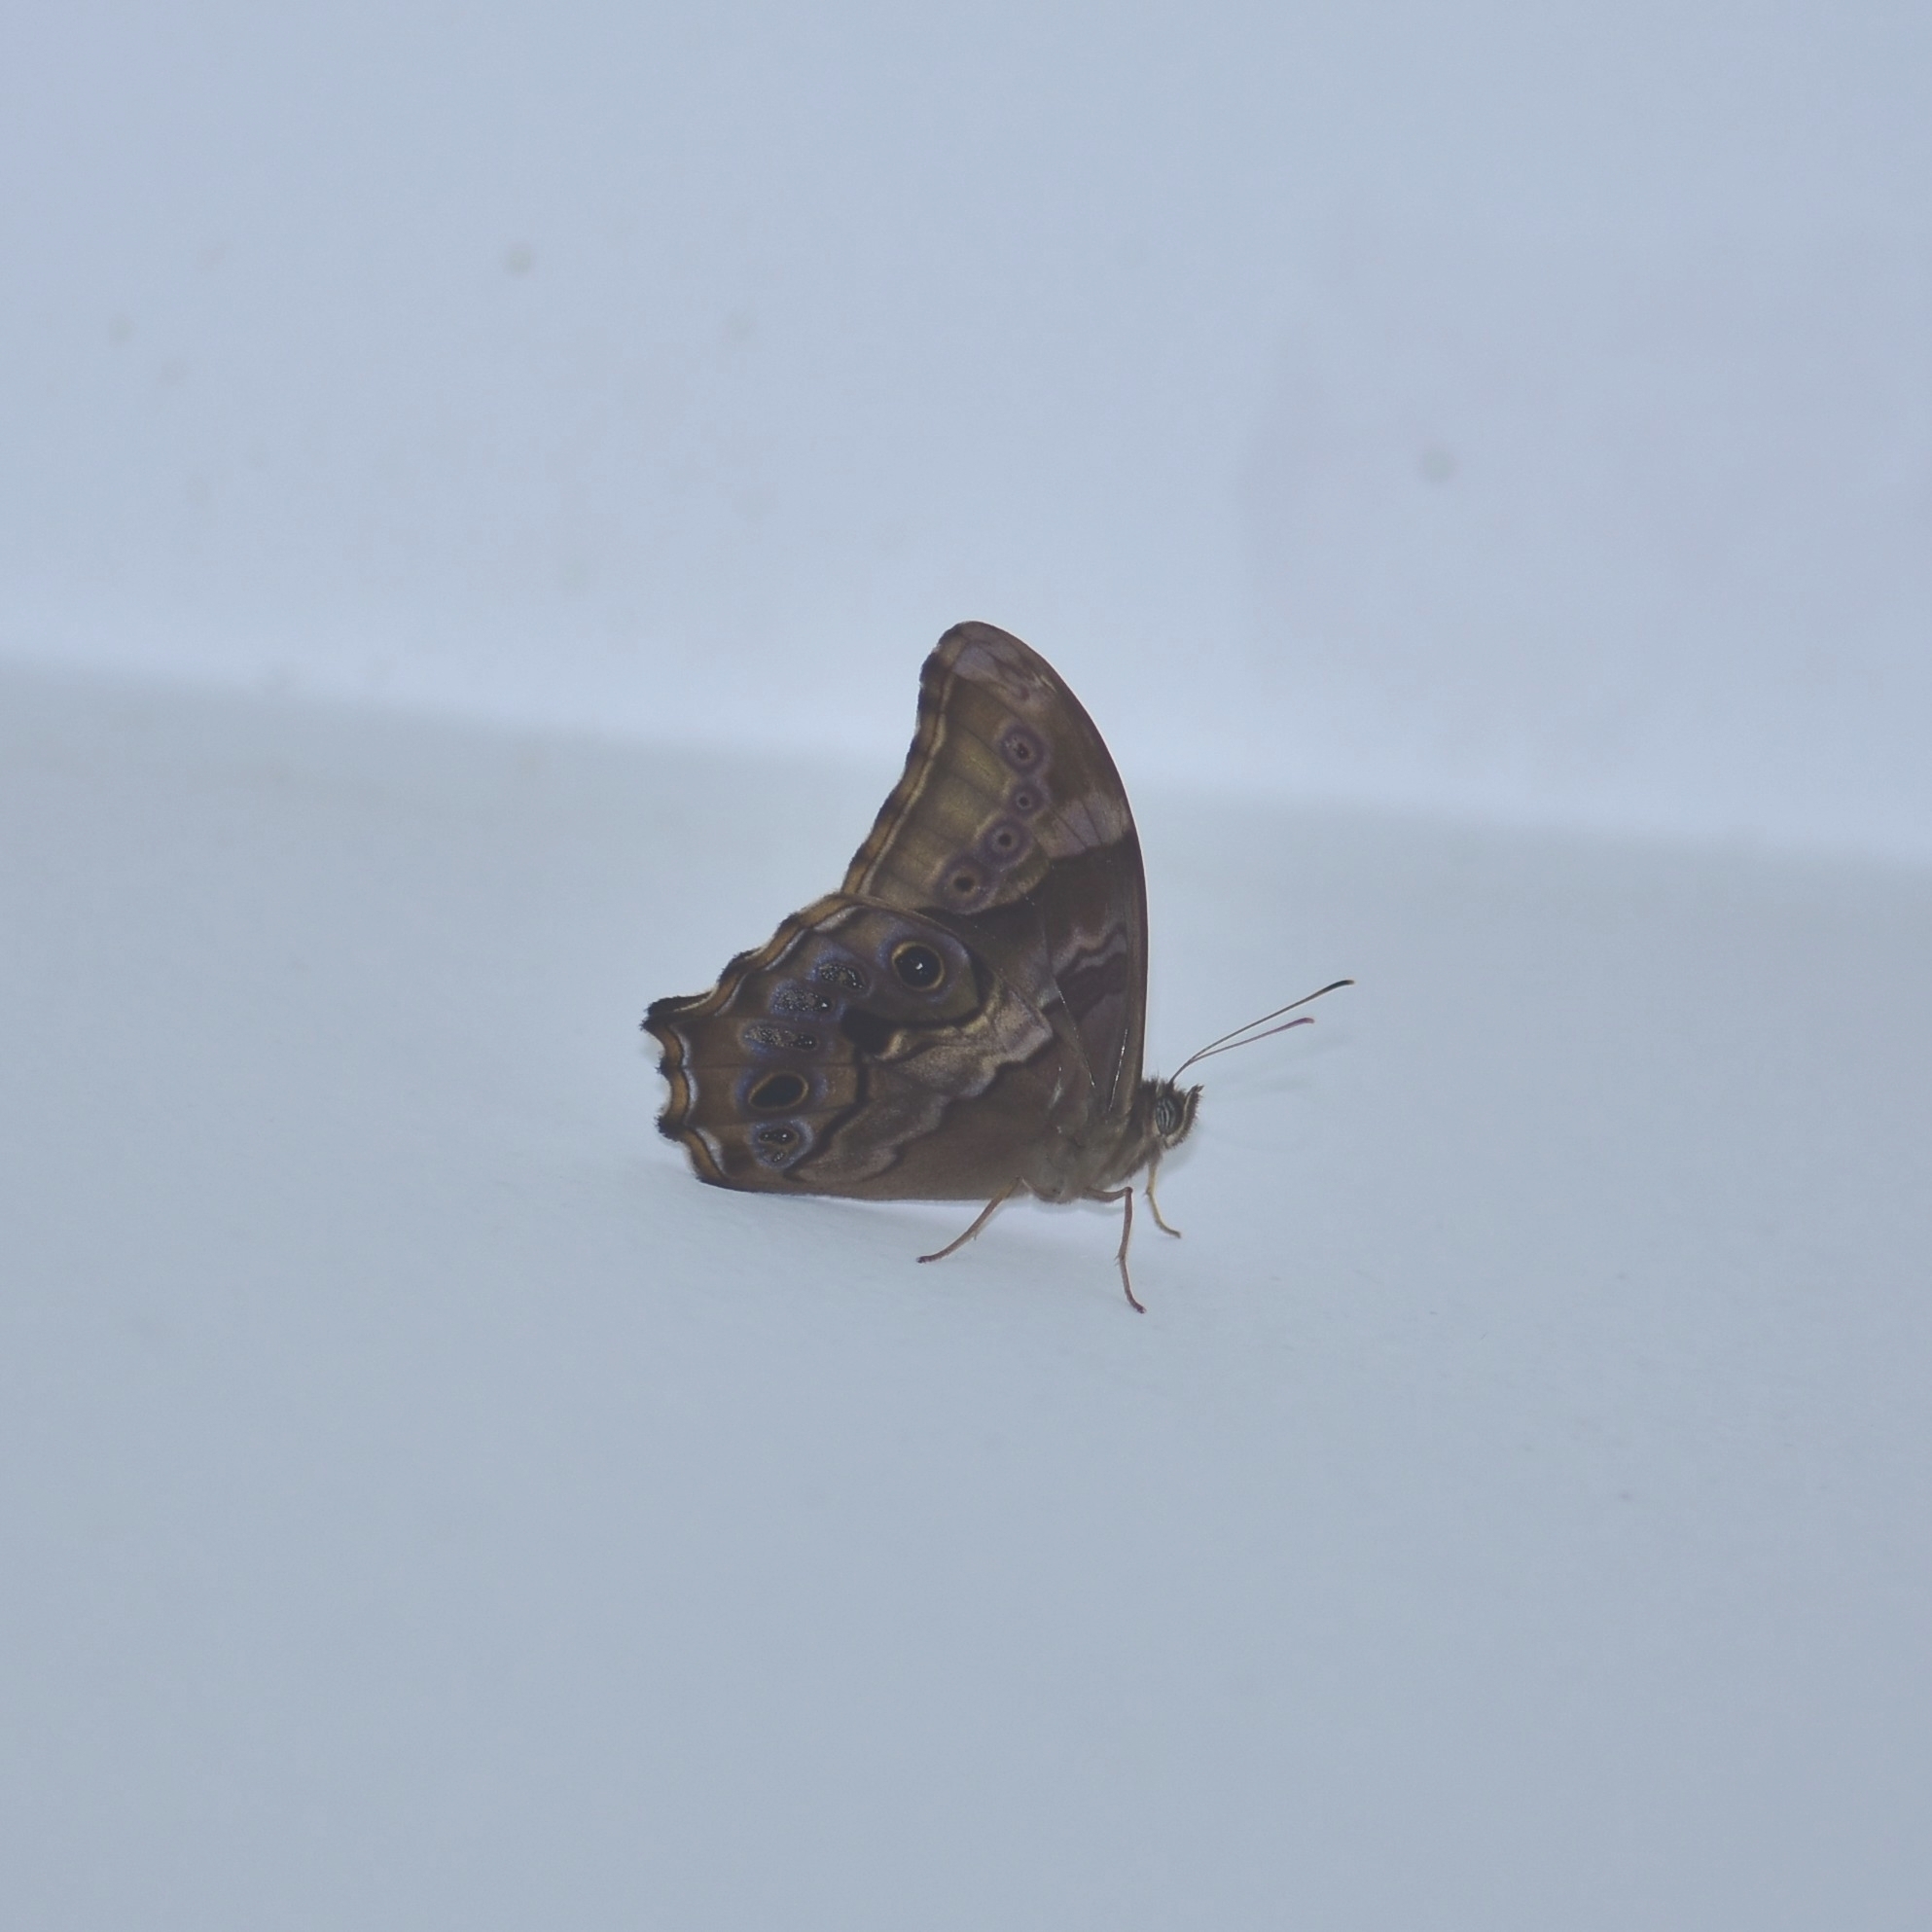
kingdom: Animalia
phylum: Arthropoda
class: Insecta
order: Lepidoptera
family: Nymphalidae
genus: Lethe
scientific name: Lethe drypetis
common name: Tamil treebrown
